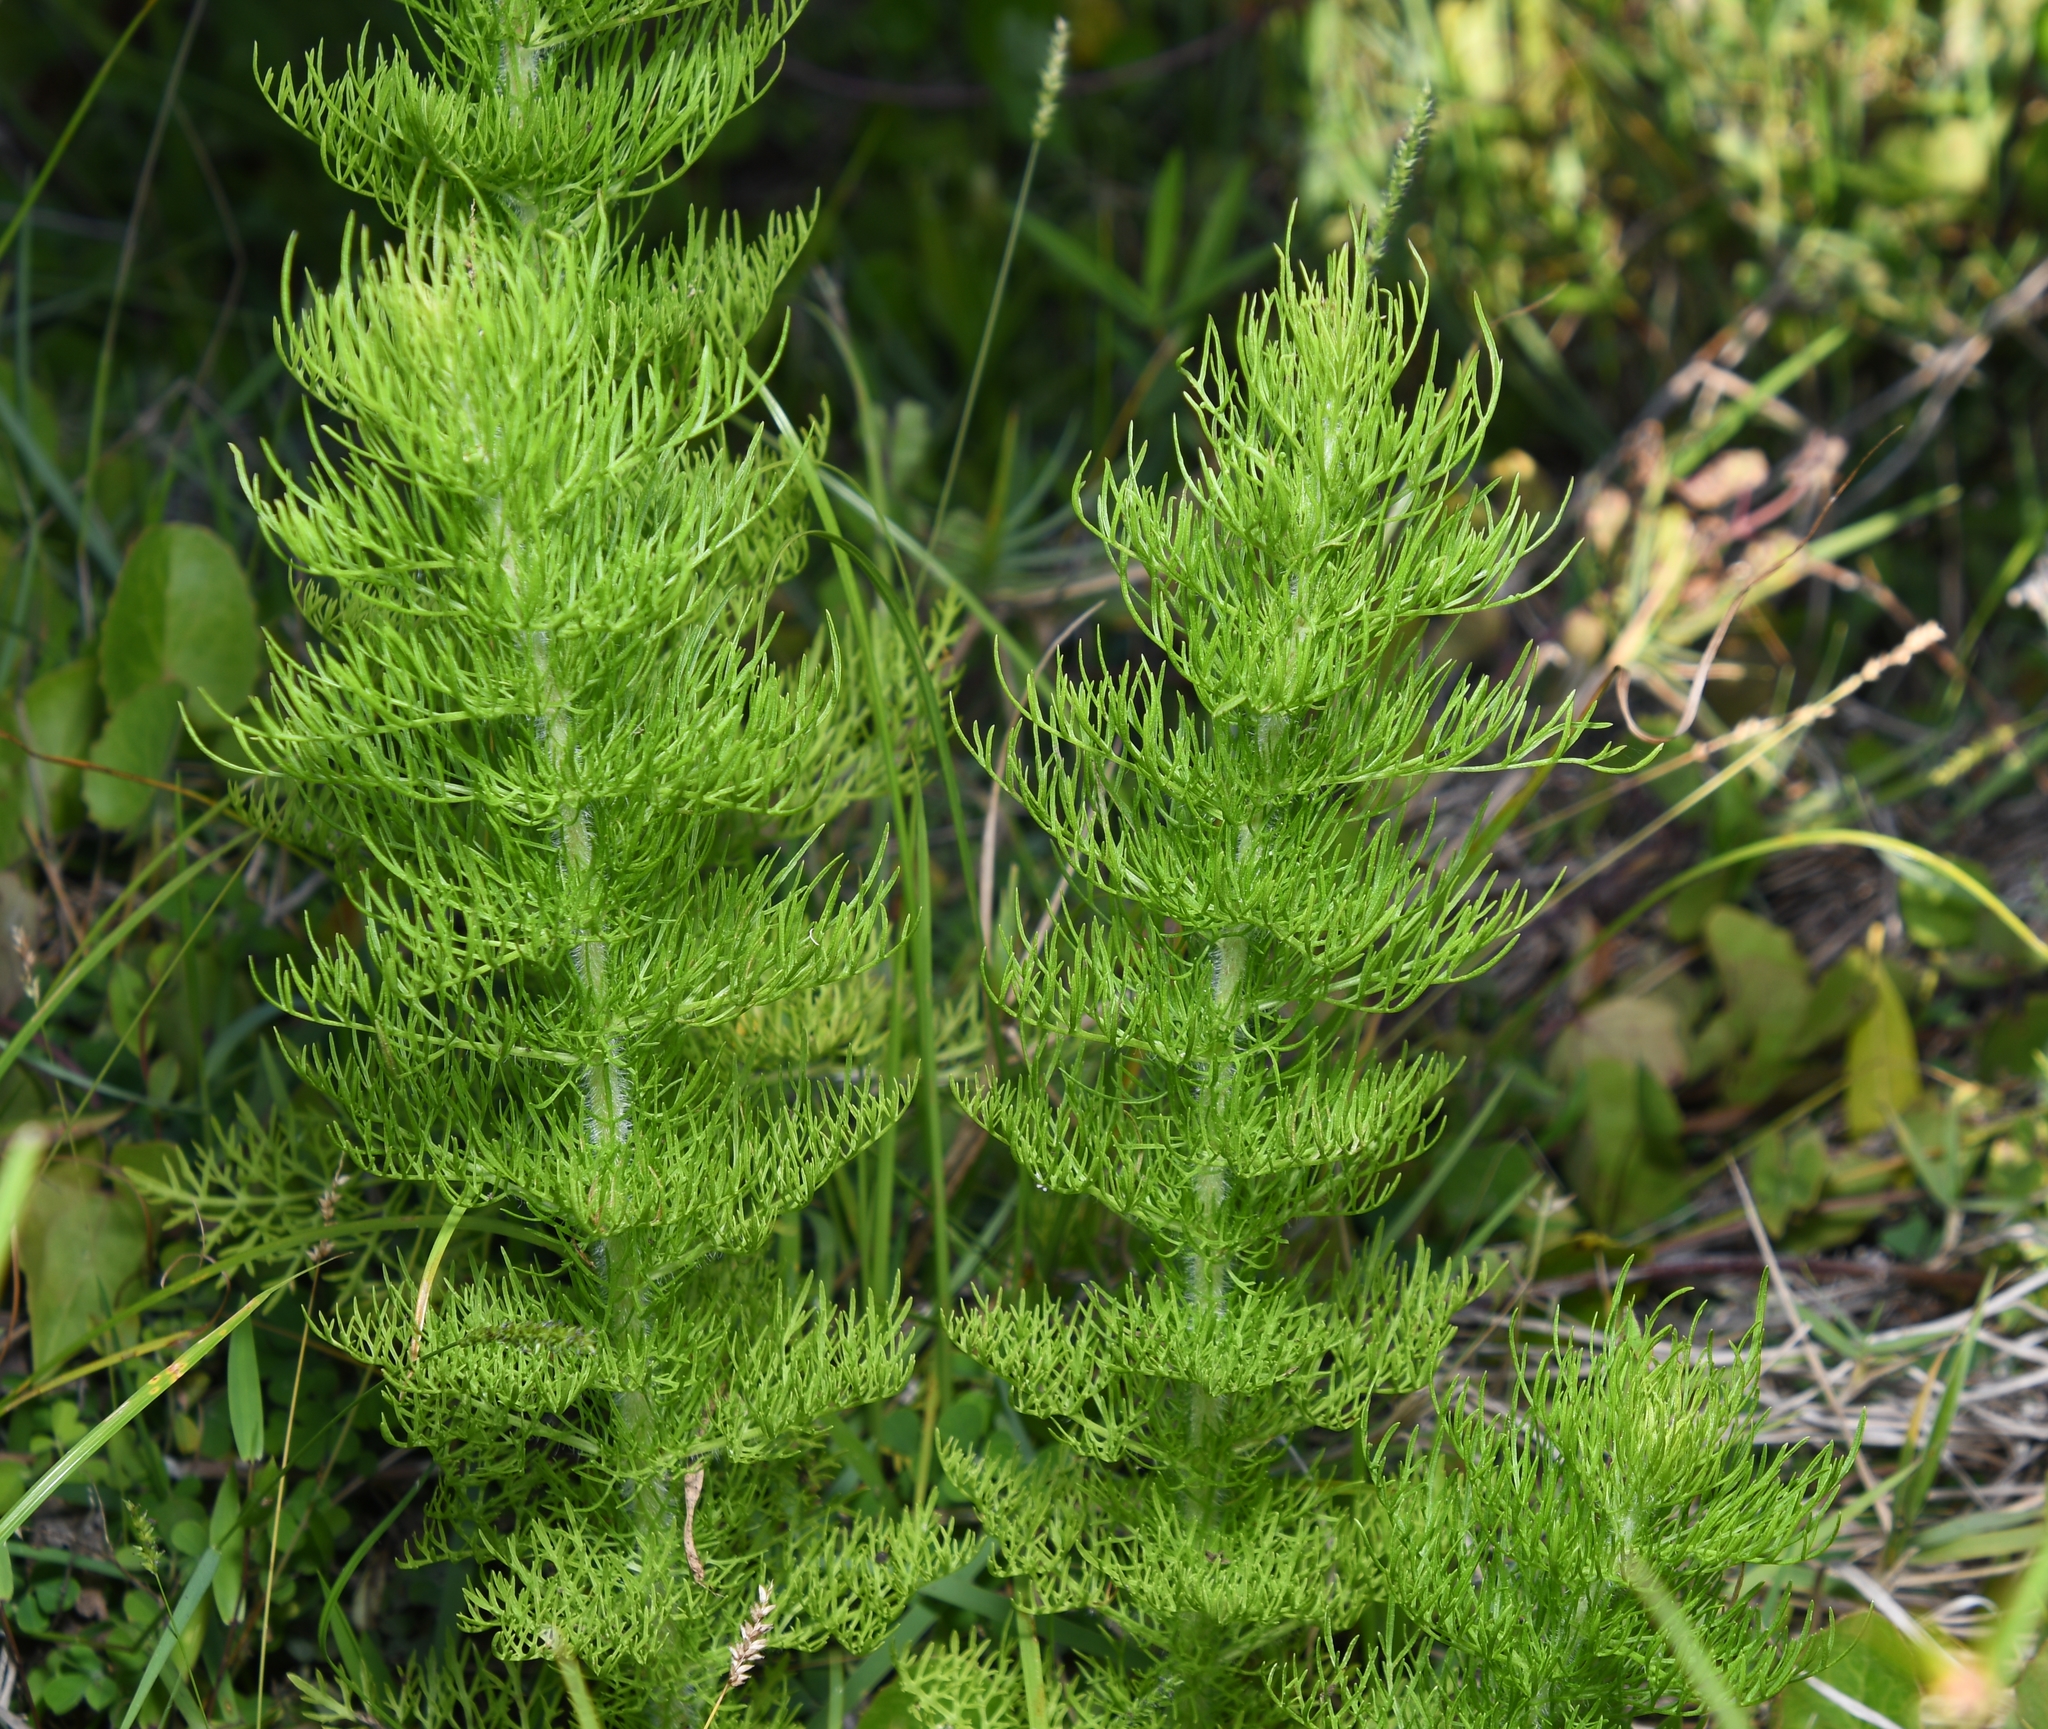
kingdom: Plantae
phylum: Tracheophyta
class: Magnoliopsida
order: Asterales
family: Asteraceae
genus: Eupatorium
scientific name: Eupatorium capillifolium
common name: Dog-fennel
